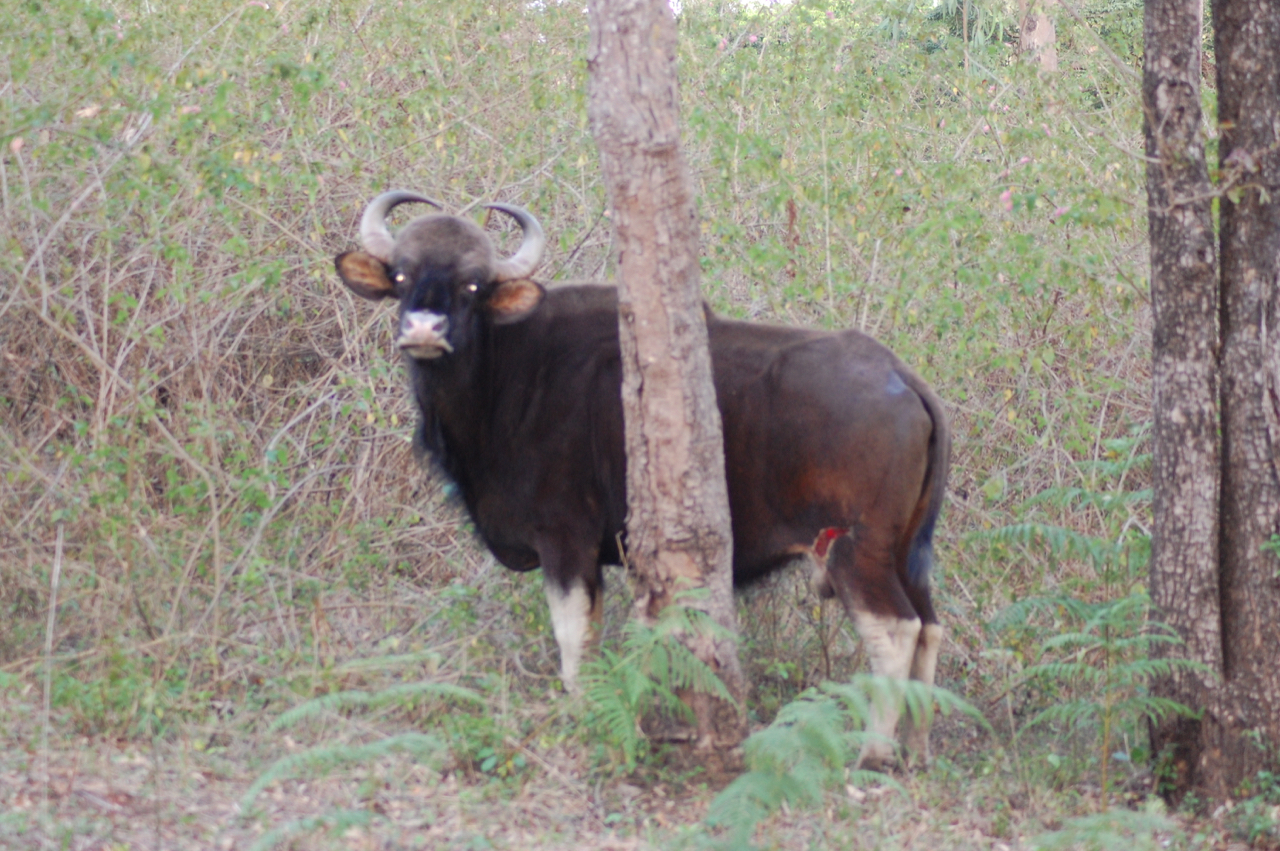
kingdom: Animalia
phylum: Chordata
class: Mammalia
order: Artiodactyla
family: Bovidae
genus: Bos
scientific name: Bos frontalis
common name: Gaur
